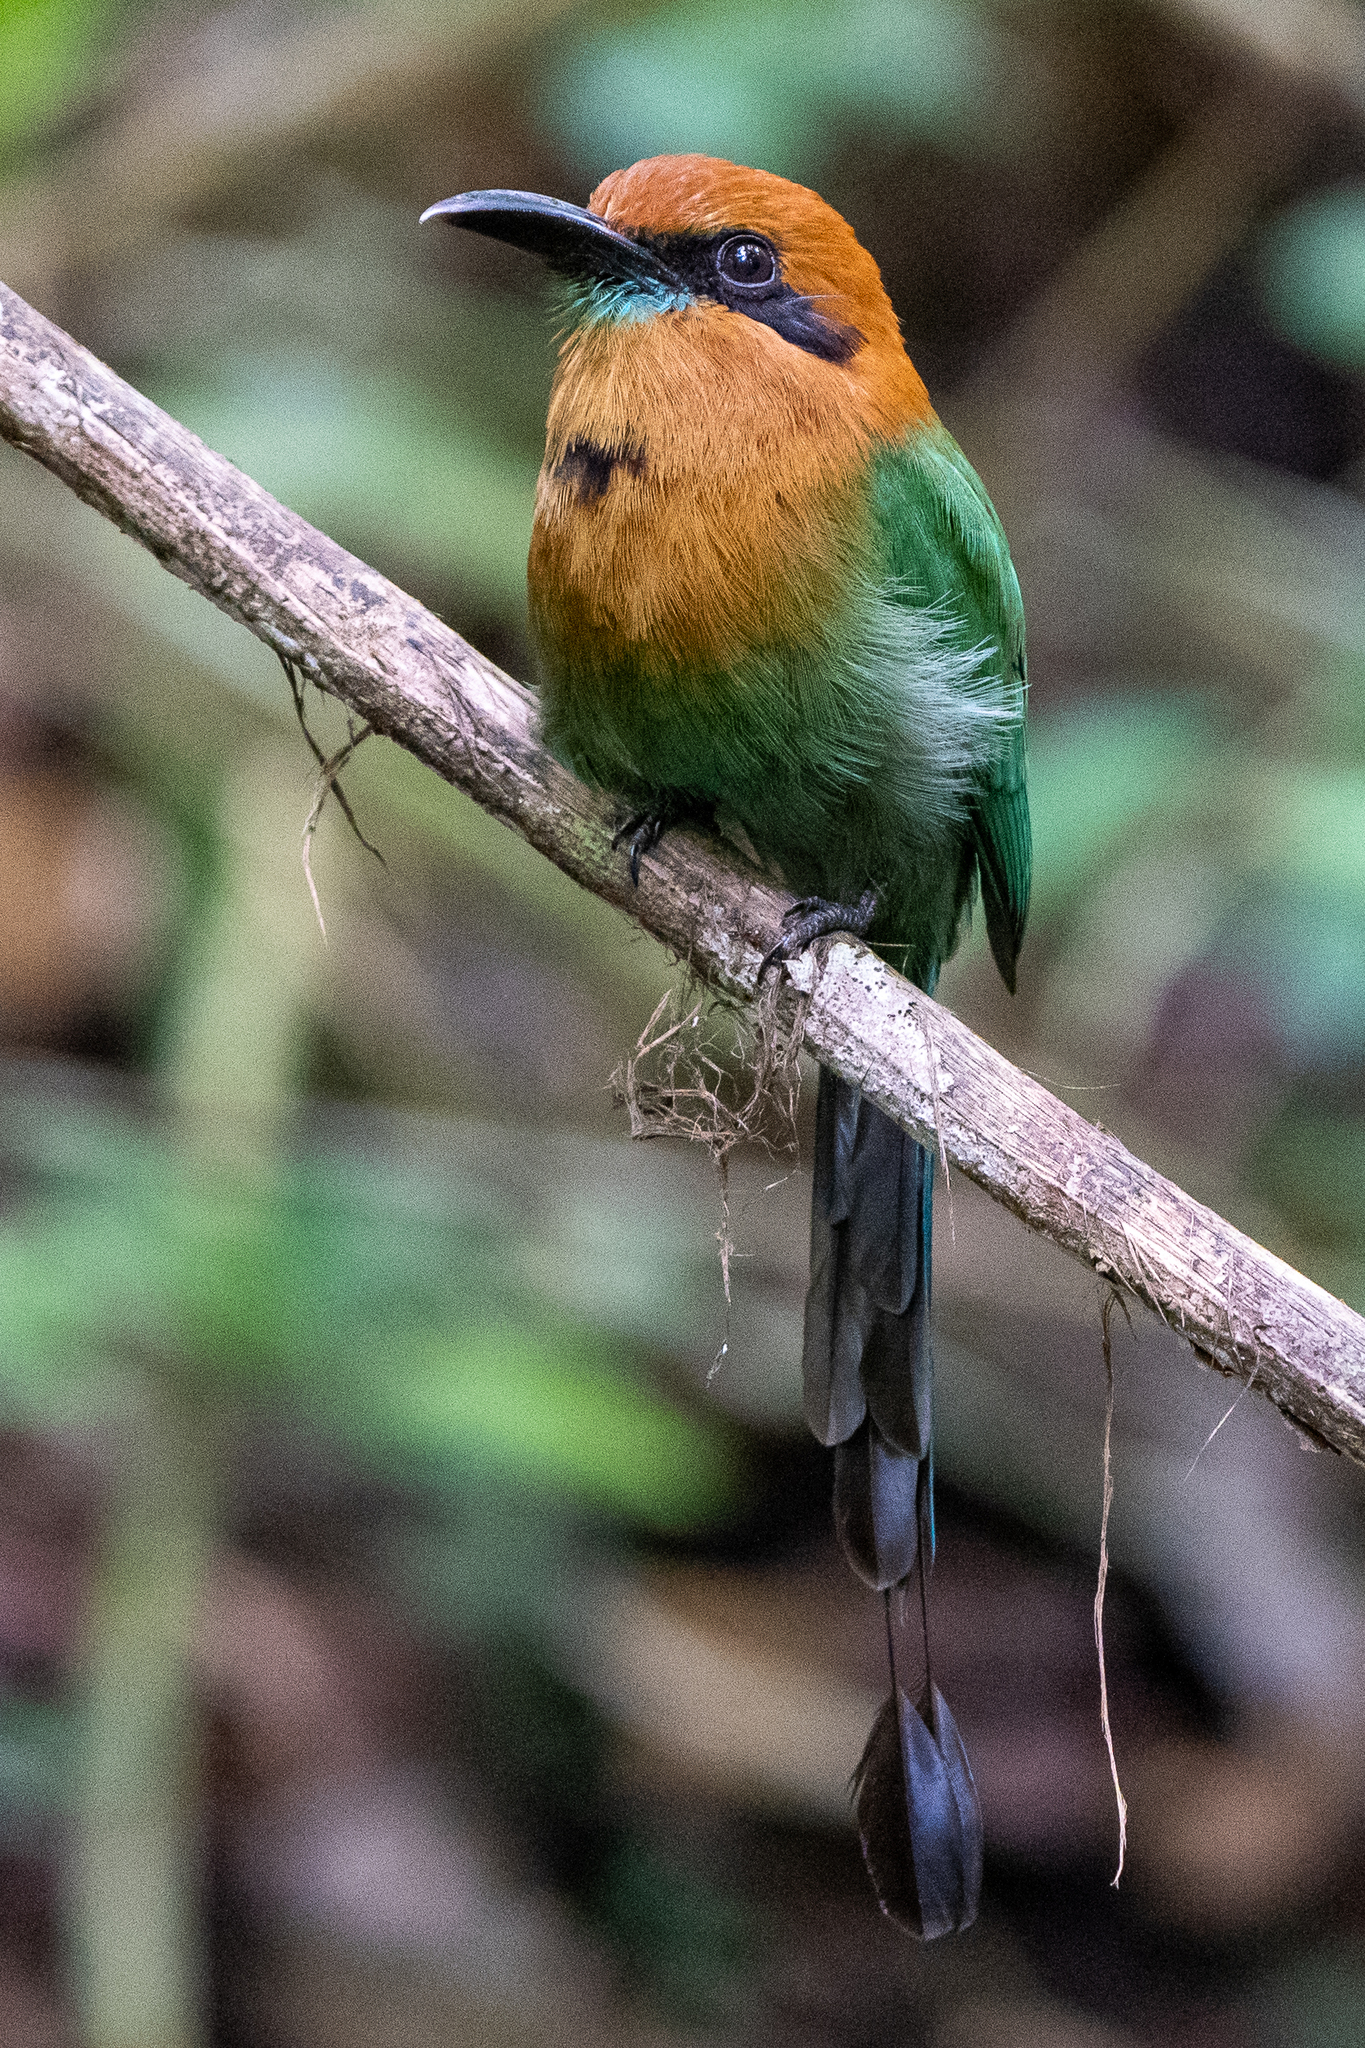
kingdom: Animalia
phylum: Chordata
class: Aves
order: Coraciiformes
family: Momotidae
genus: Electron
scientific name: Electron platyrhynchum
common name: Broad-billed motmot
